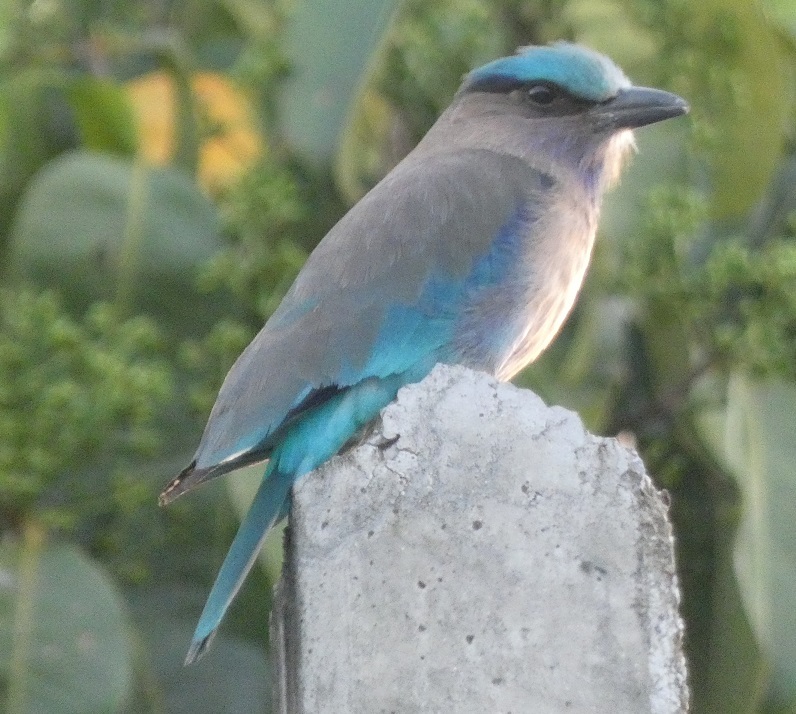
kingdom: Animalia
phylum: Chordata
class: Aves
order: Coraciiformes
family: Coraciidae
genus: Coracias
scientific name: Coracias affinis
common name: Indochinese roller
